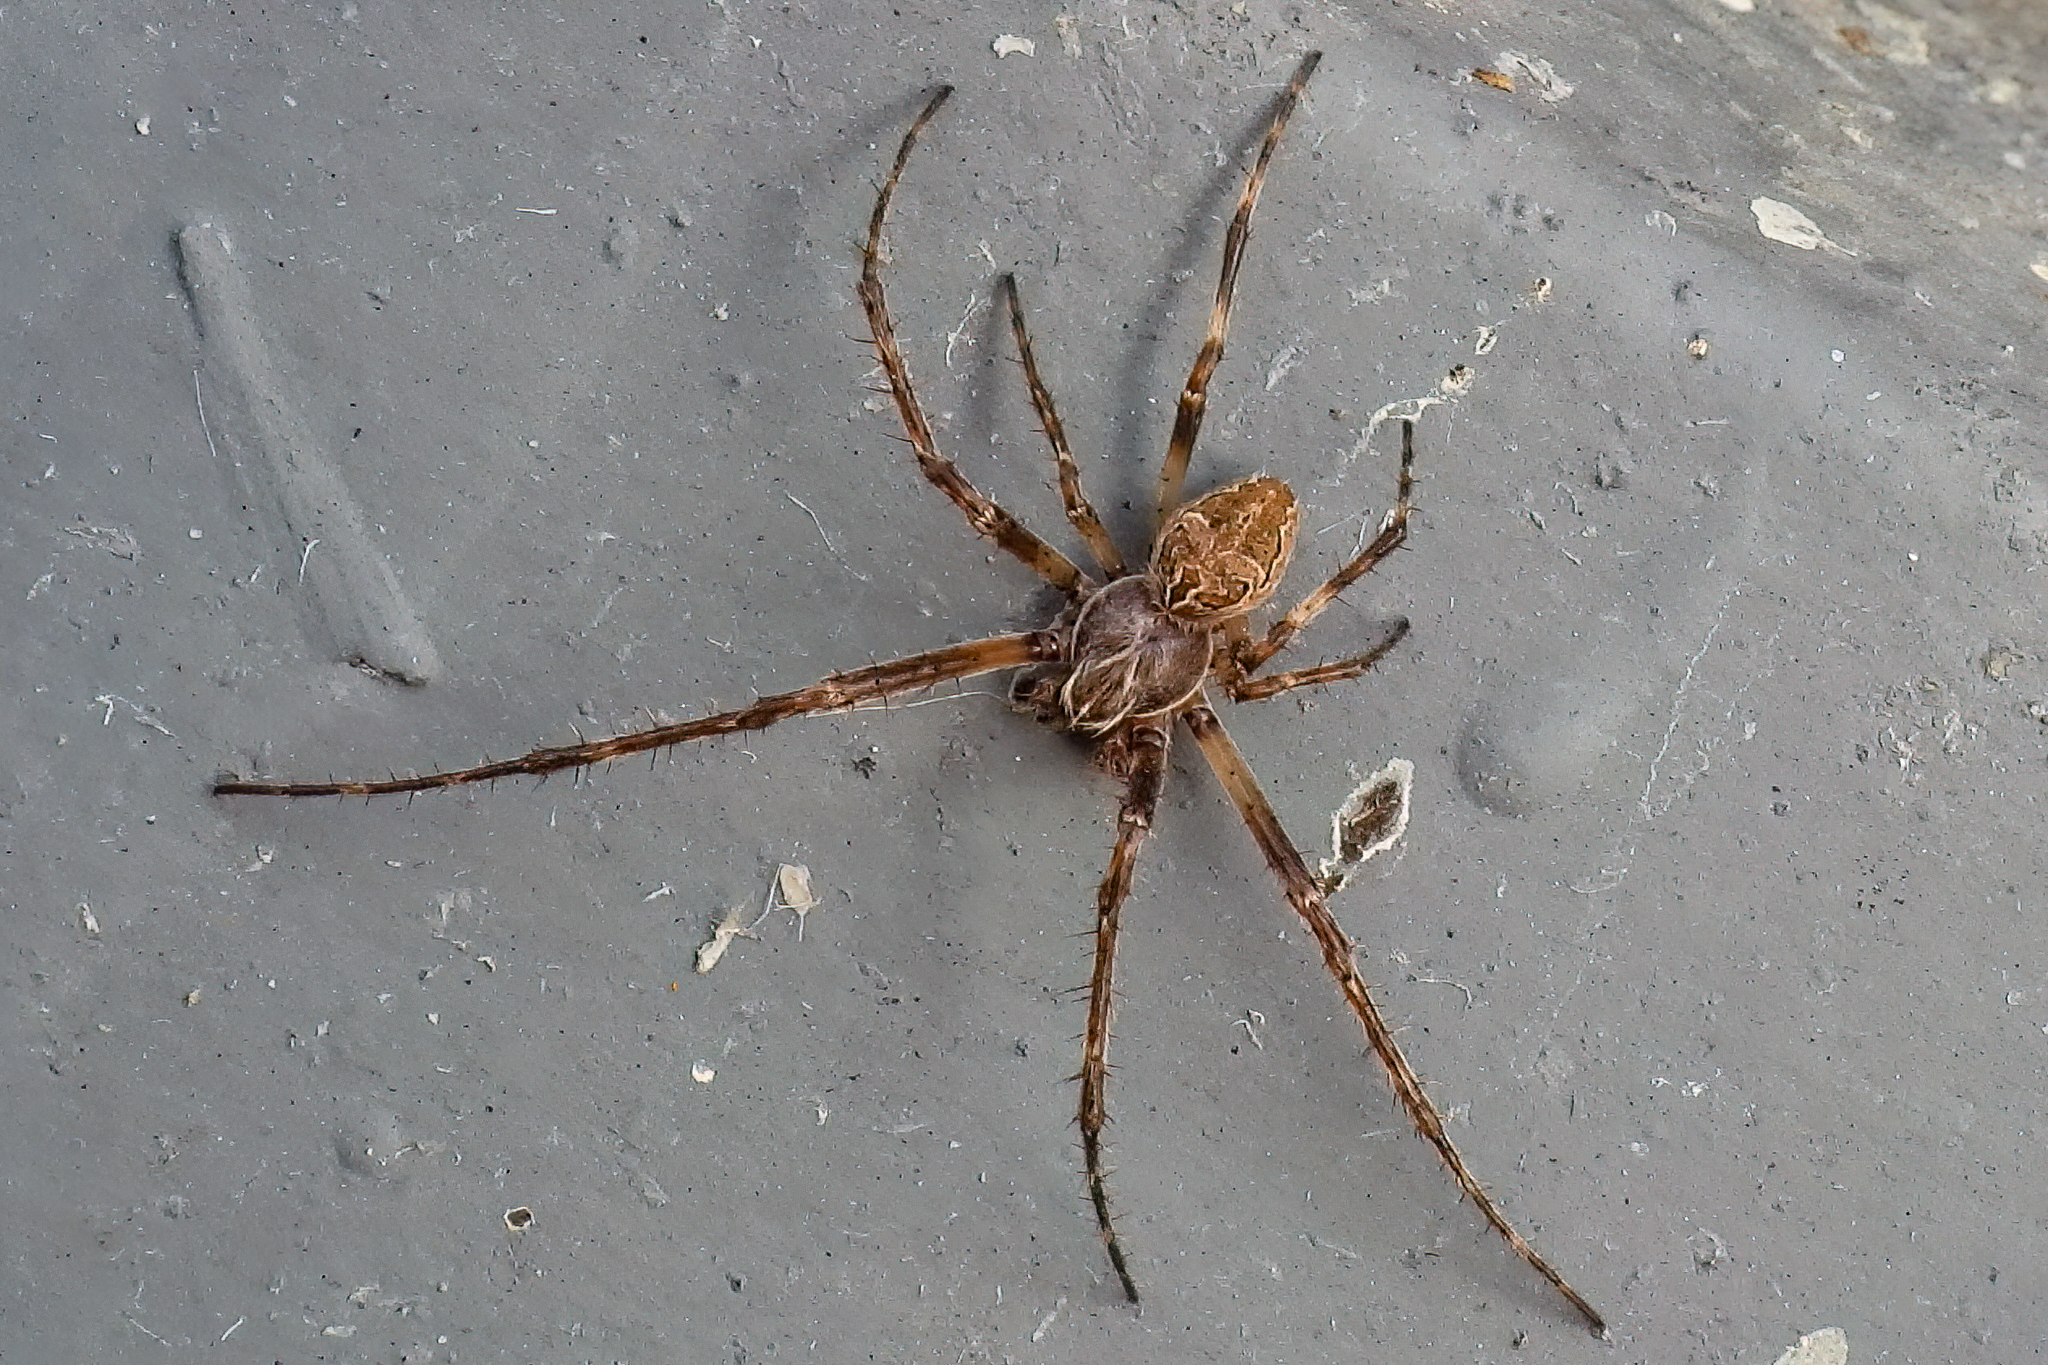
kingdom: Animalia
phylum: Arthropoda
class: Arachnida
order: Araneae
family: Araneidae
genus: Larinioides
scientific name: Larinioides sclopetarius
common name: Bridge orbweaver
